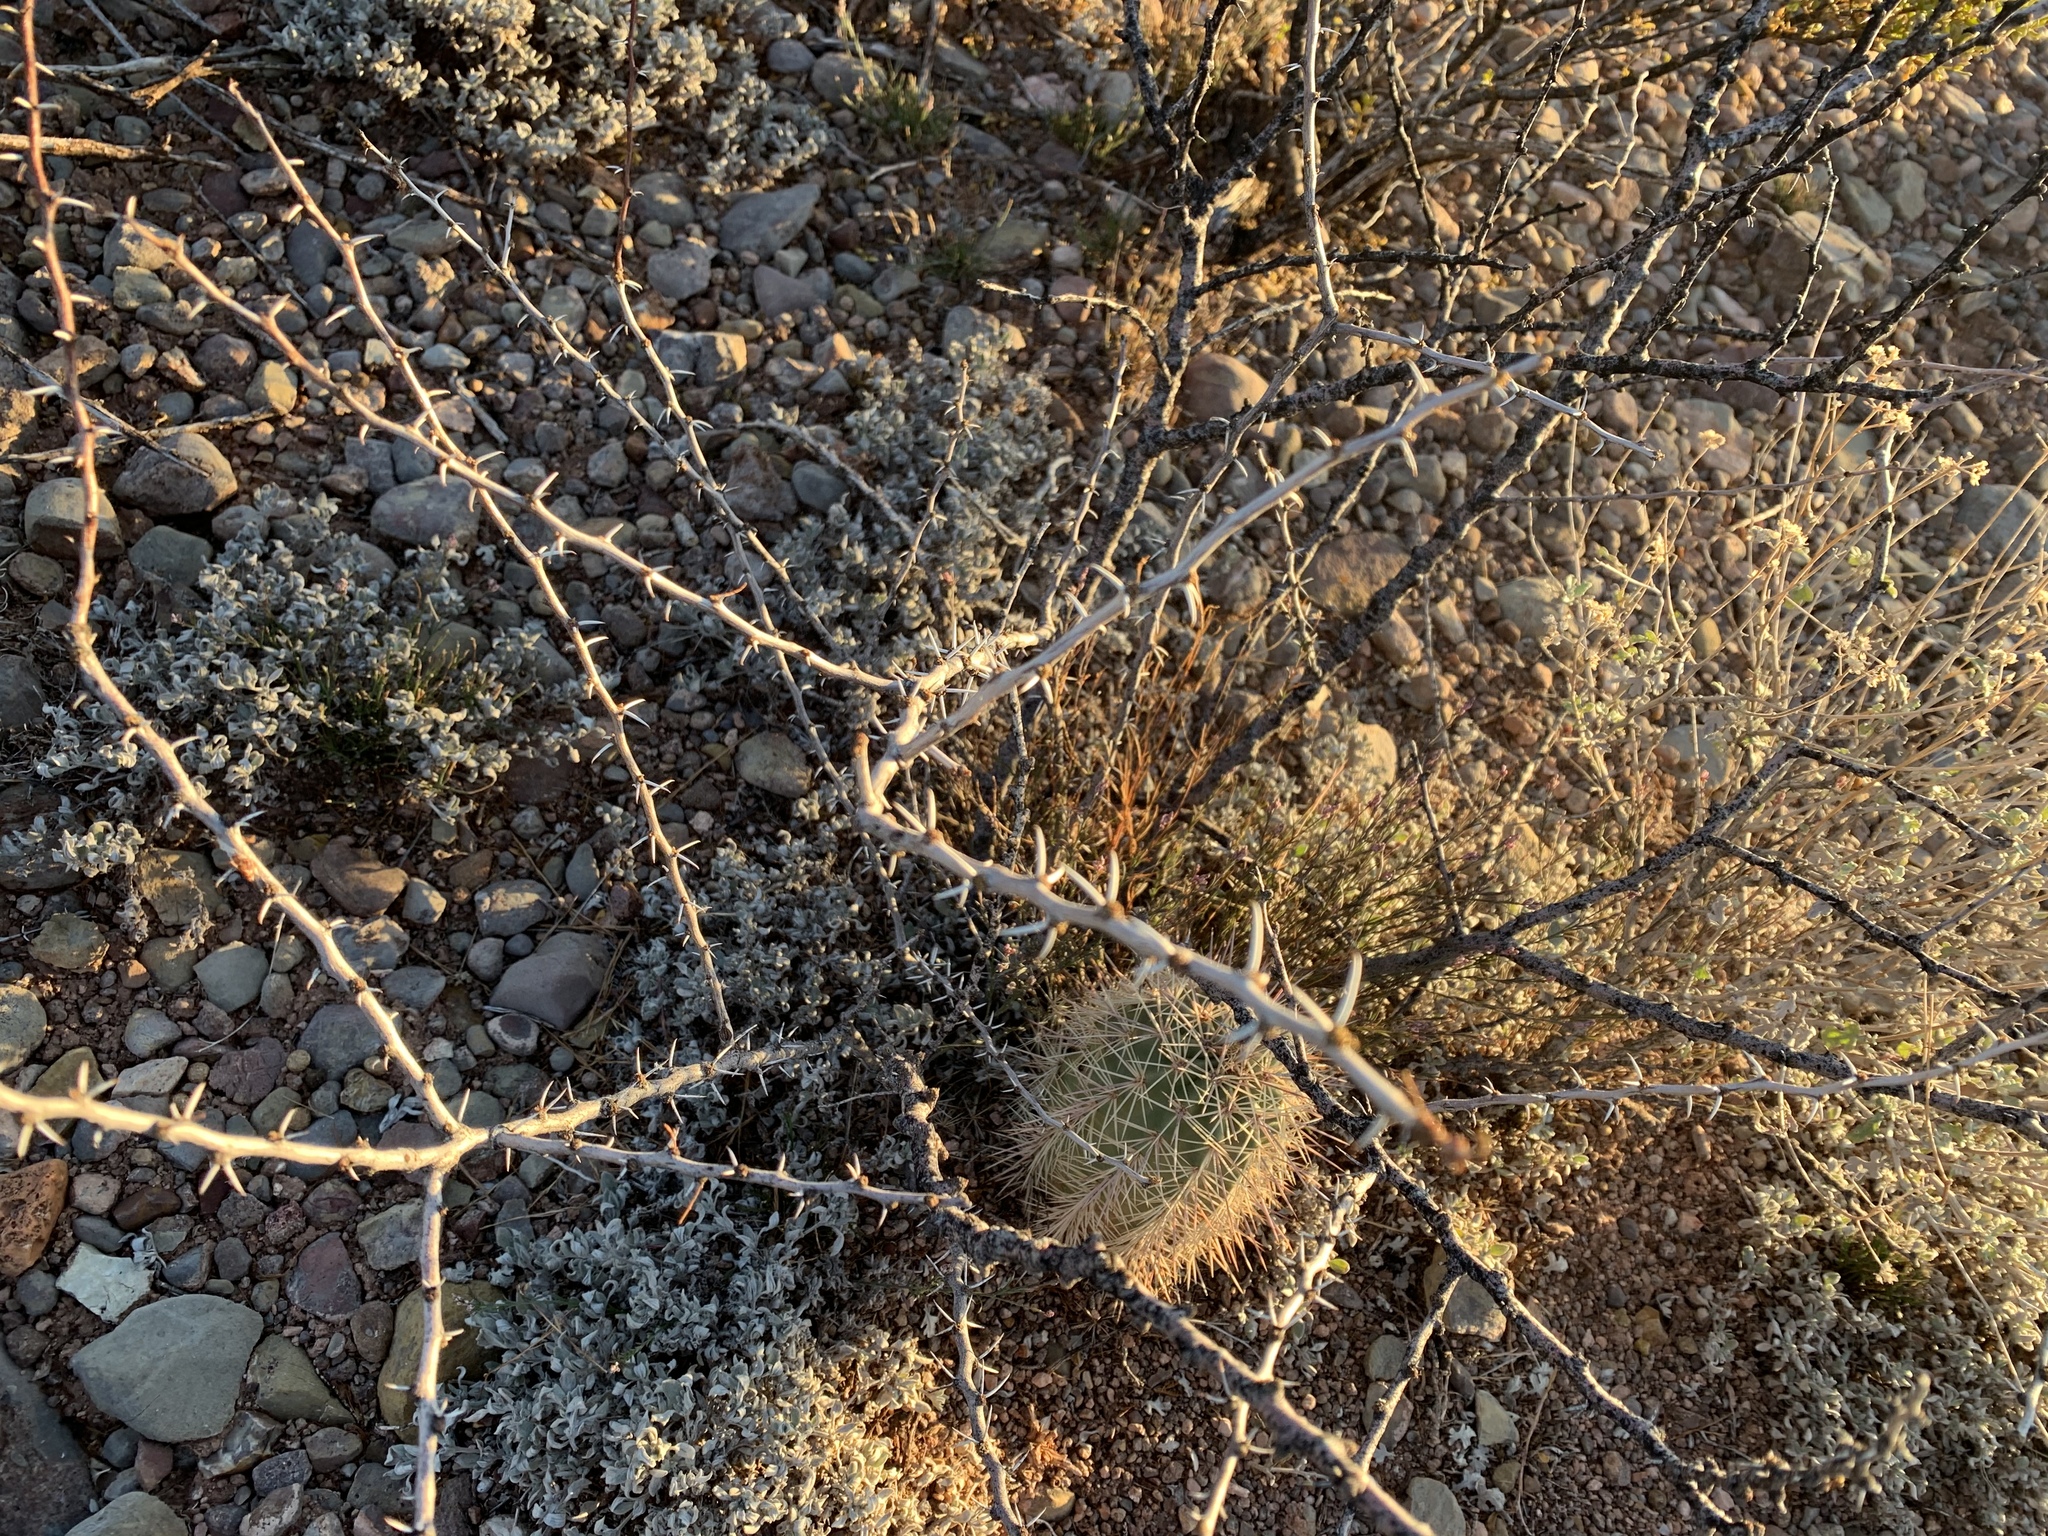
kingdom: Plantae
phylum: Tracheophyta
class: Magnoliopsida
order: Fabales
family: Fabaceae
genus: Vachellia
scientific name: Vachellia constricta
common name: Mescat acacia
